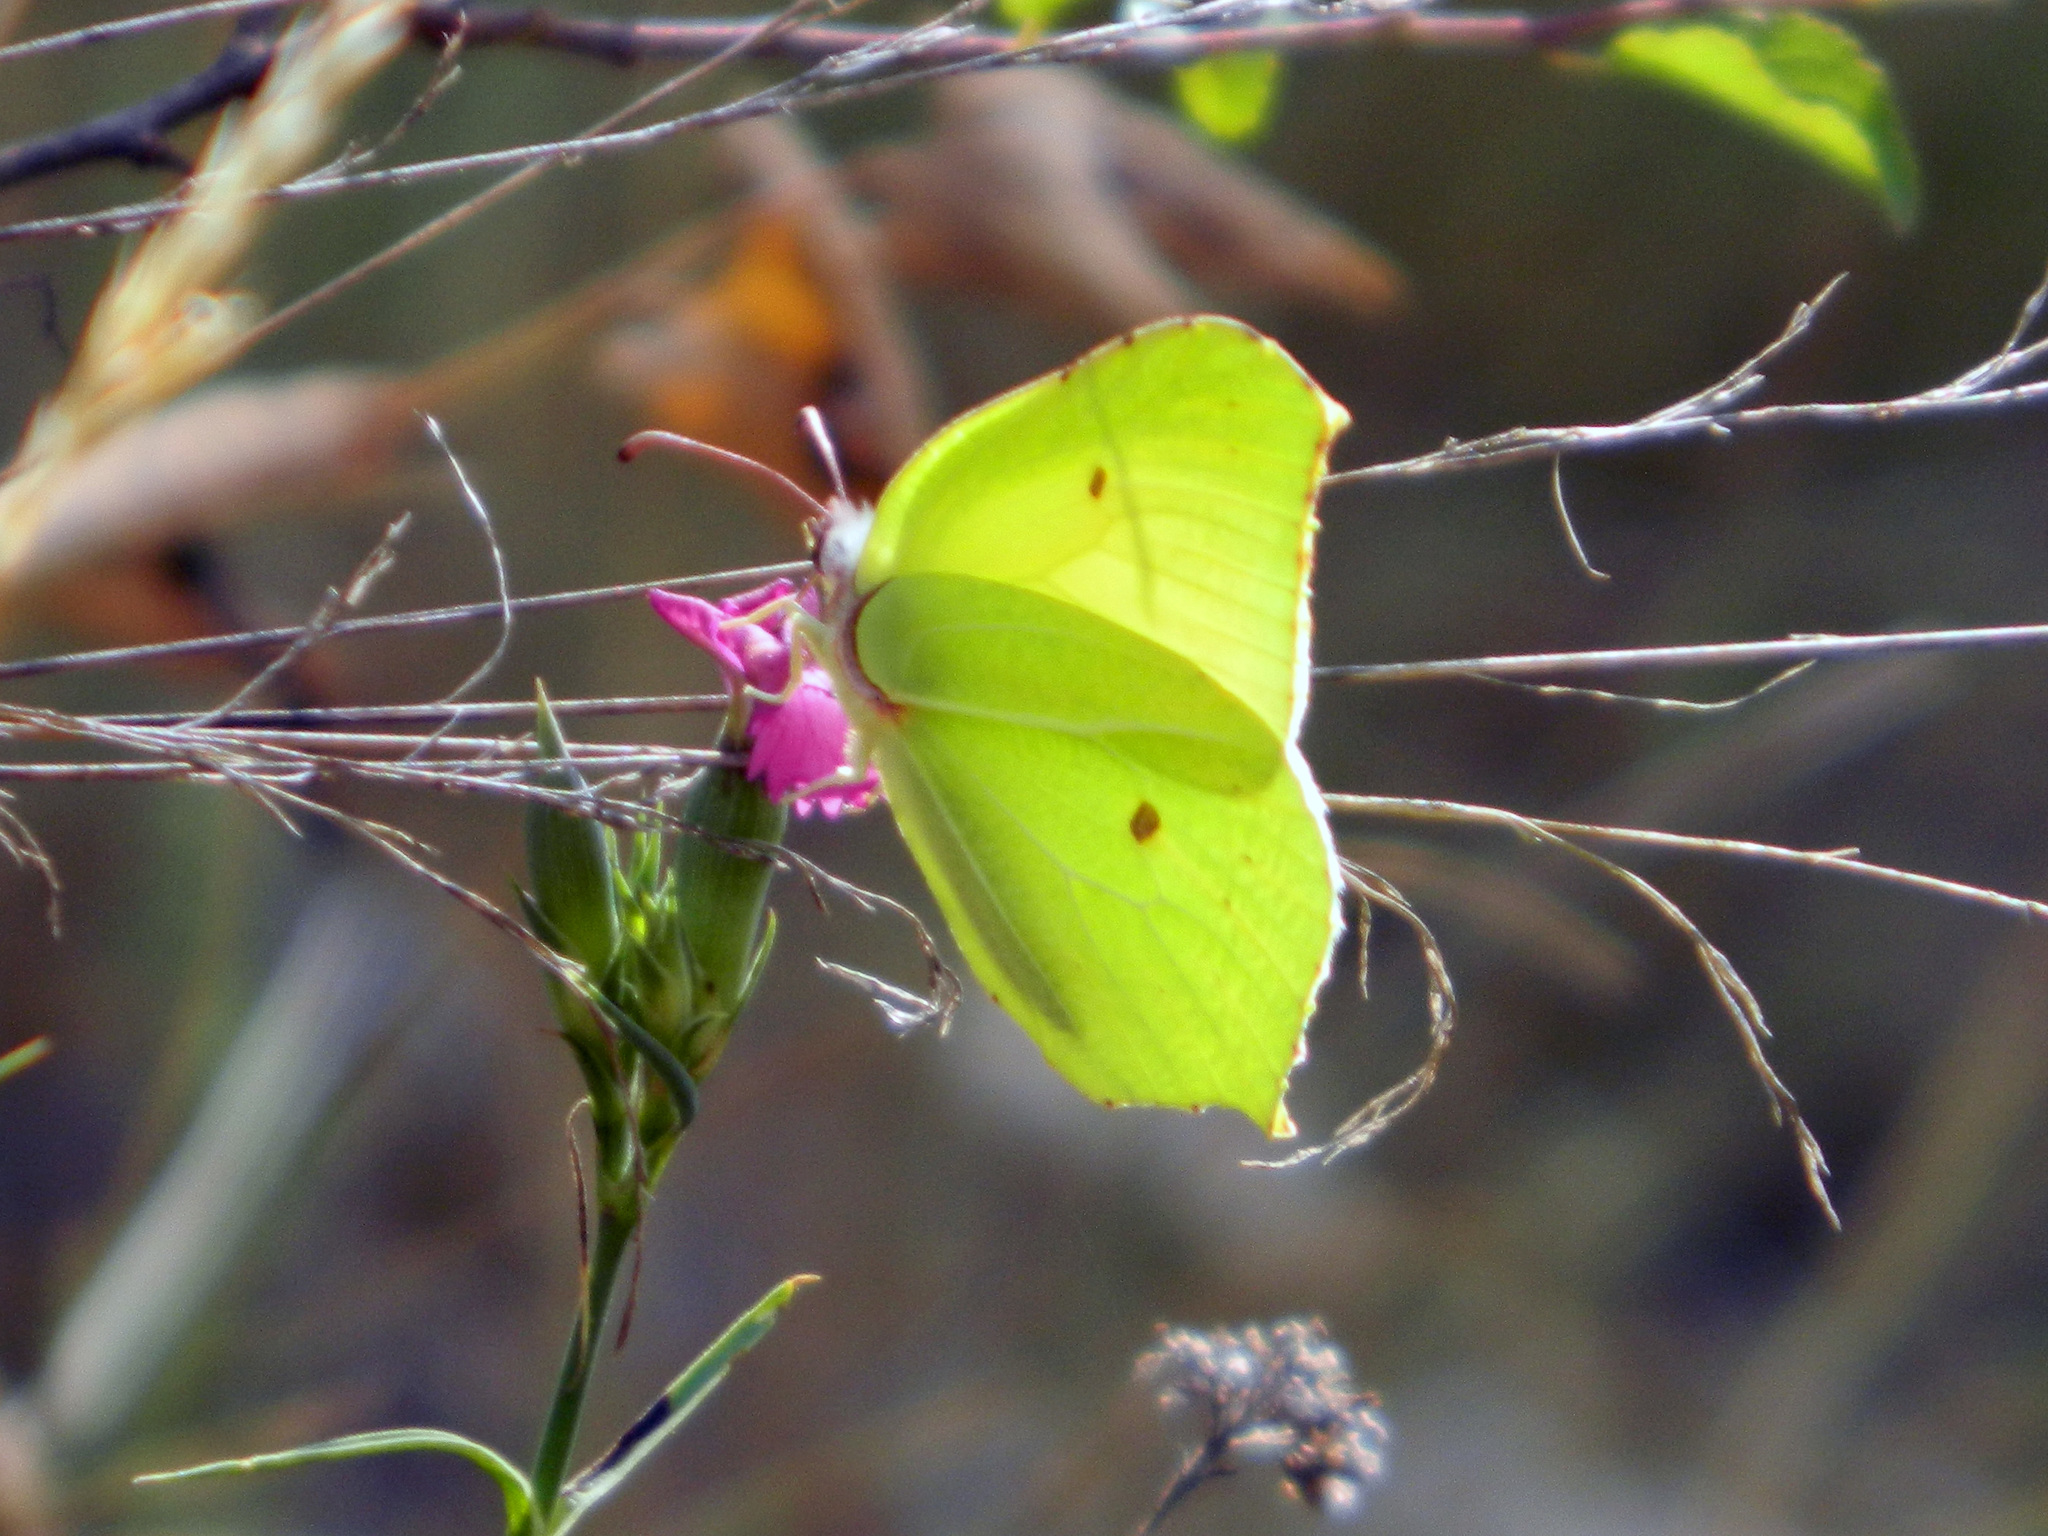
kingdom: Animalia
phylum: Arthropoda
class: Insecta
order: Lepidoptera
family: Pieridae
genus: Gonepteryx
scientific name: Gonepteryx rhamni
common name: Brimstone
